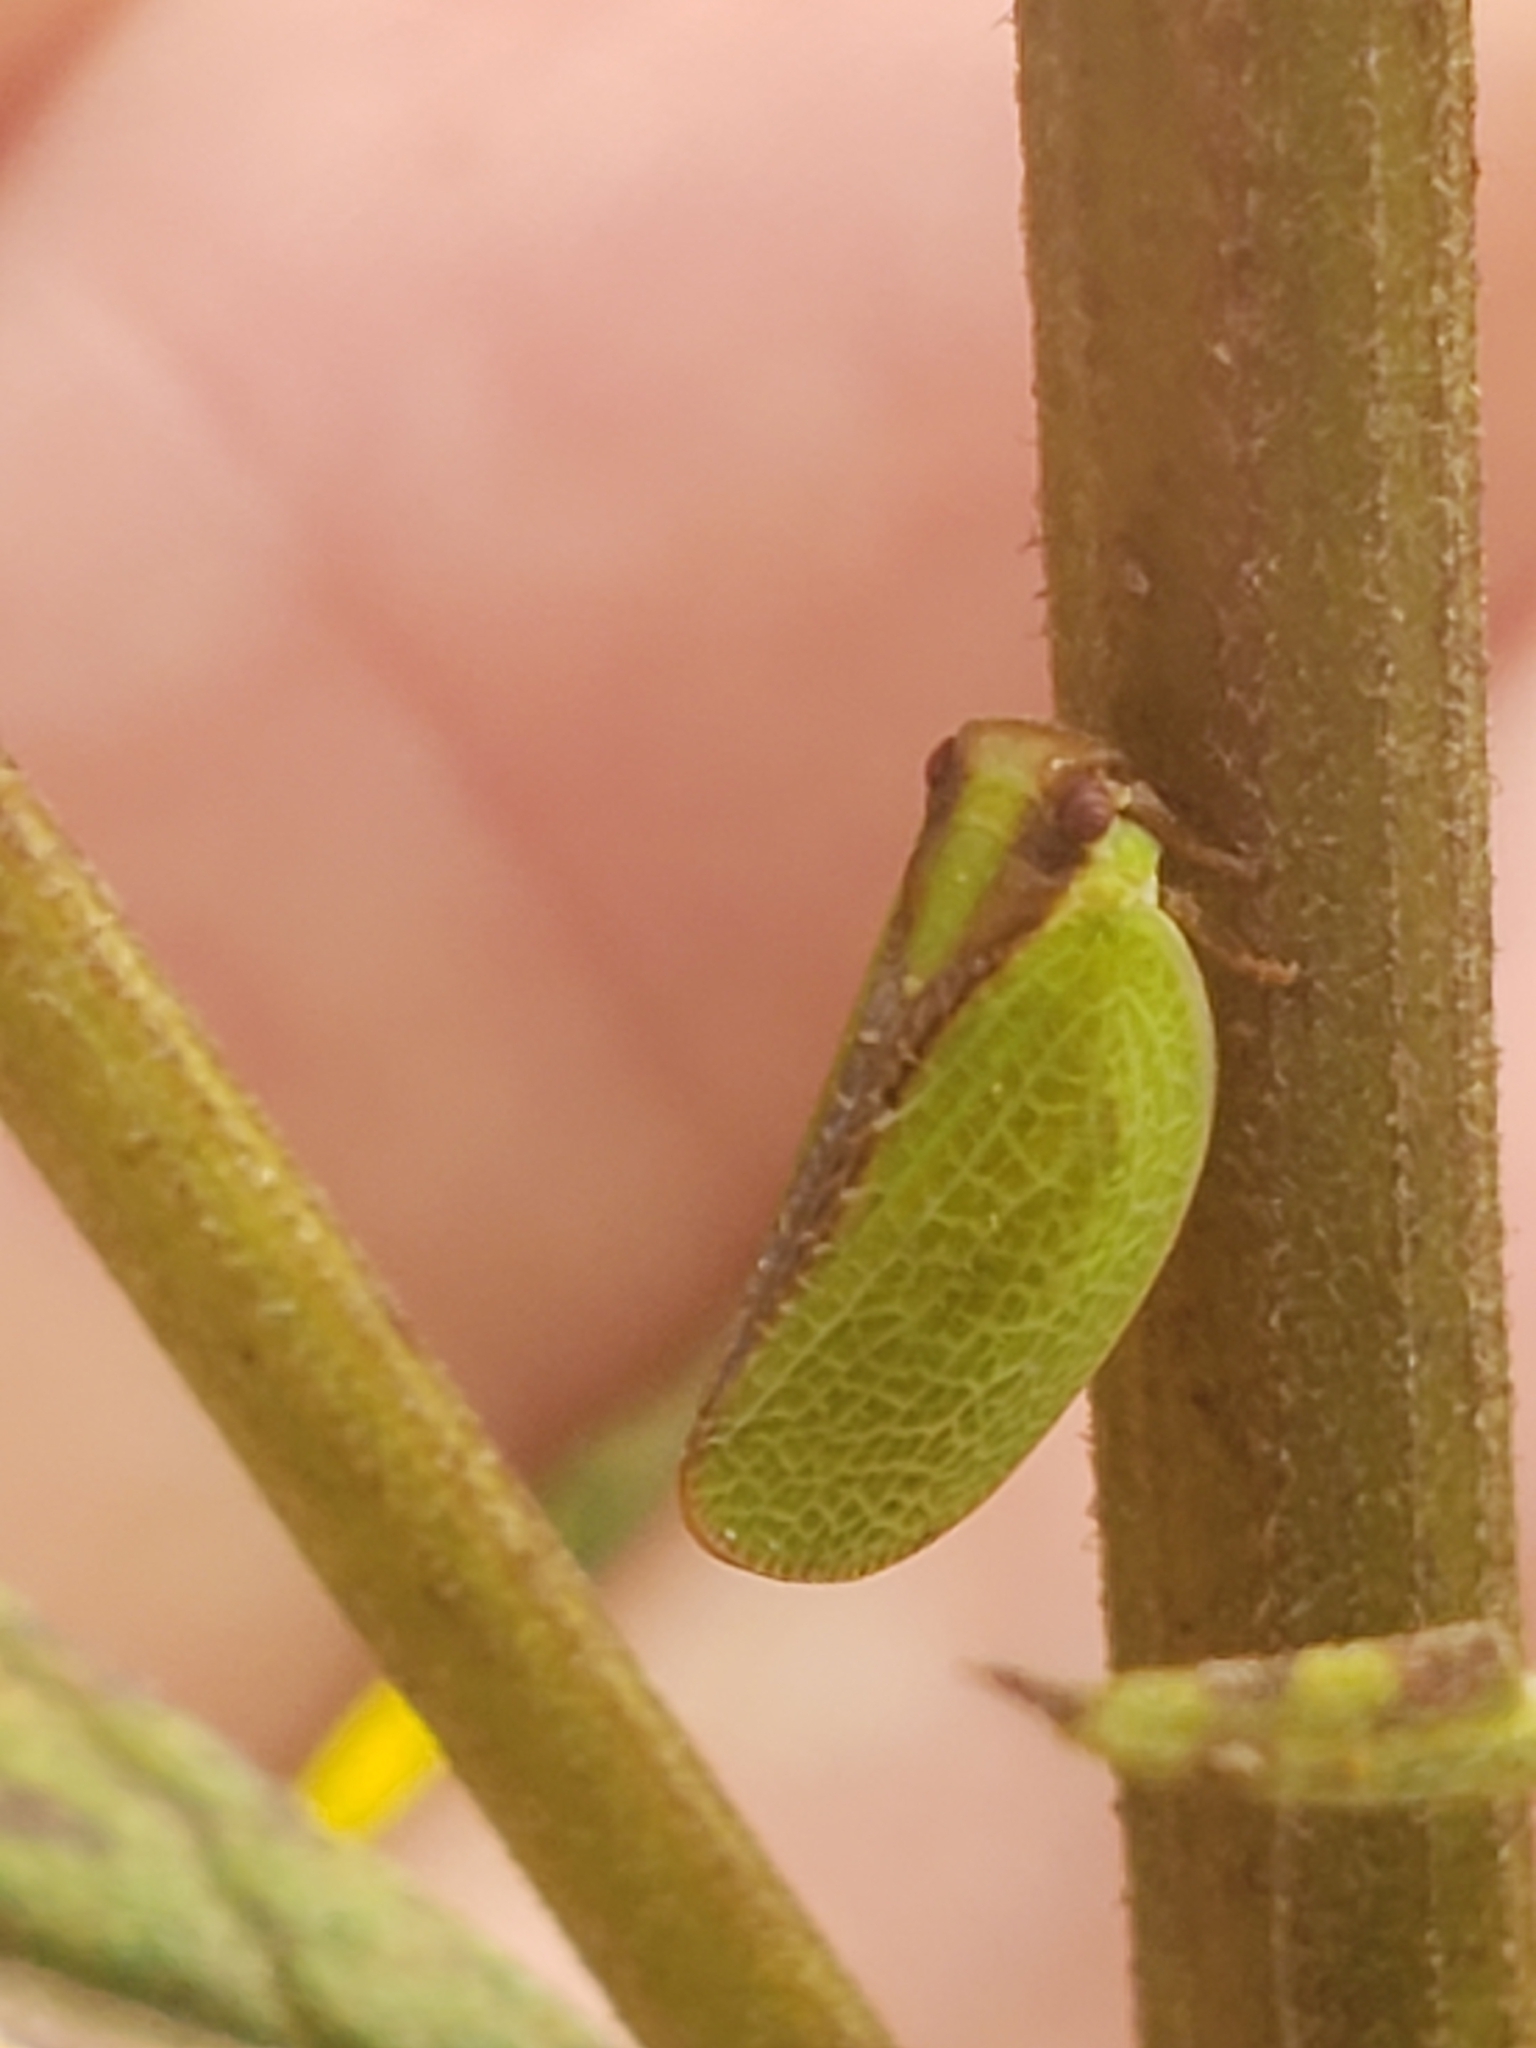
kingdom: Animalia
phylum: Arthropoda
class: Insecta
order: Hemiptera
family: Acanaloniidae
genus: Acanalonia
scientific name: Acanalonia bivittata
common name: Two-striped planthopper
